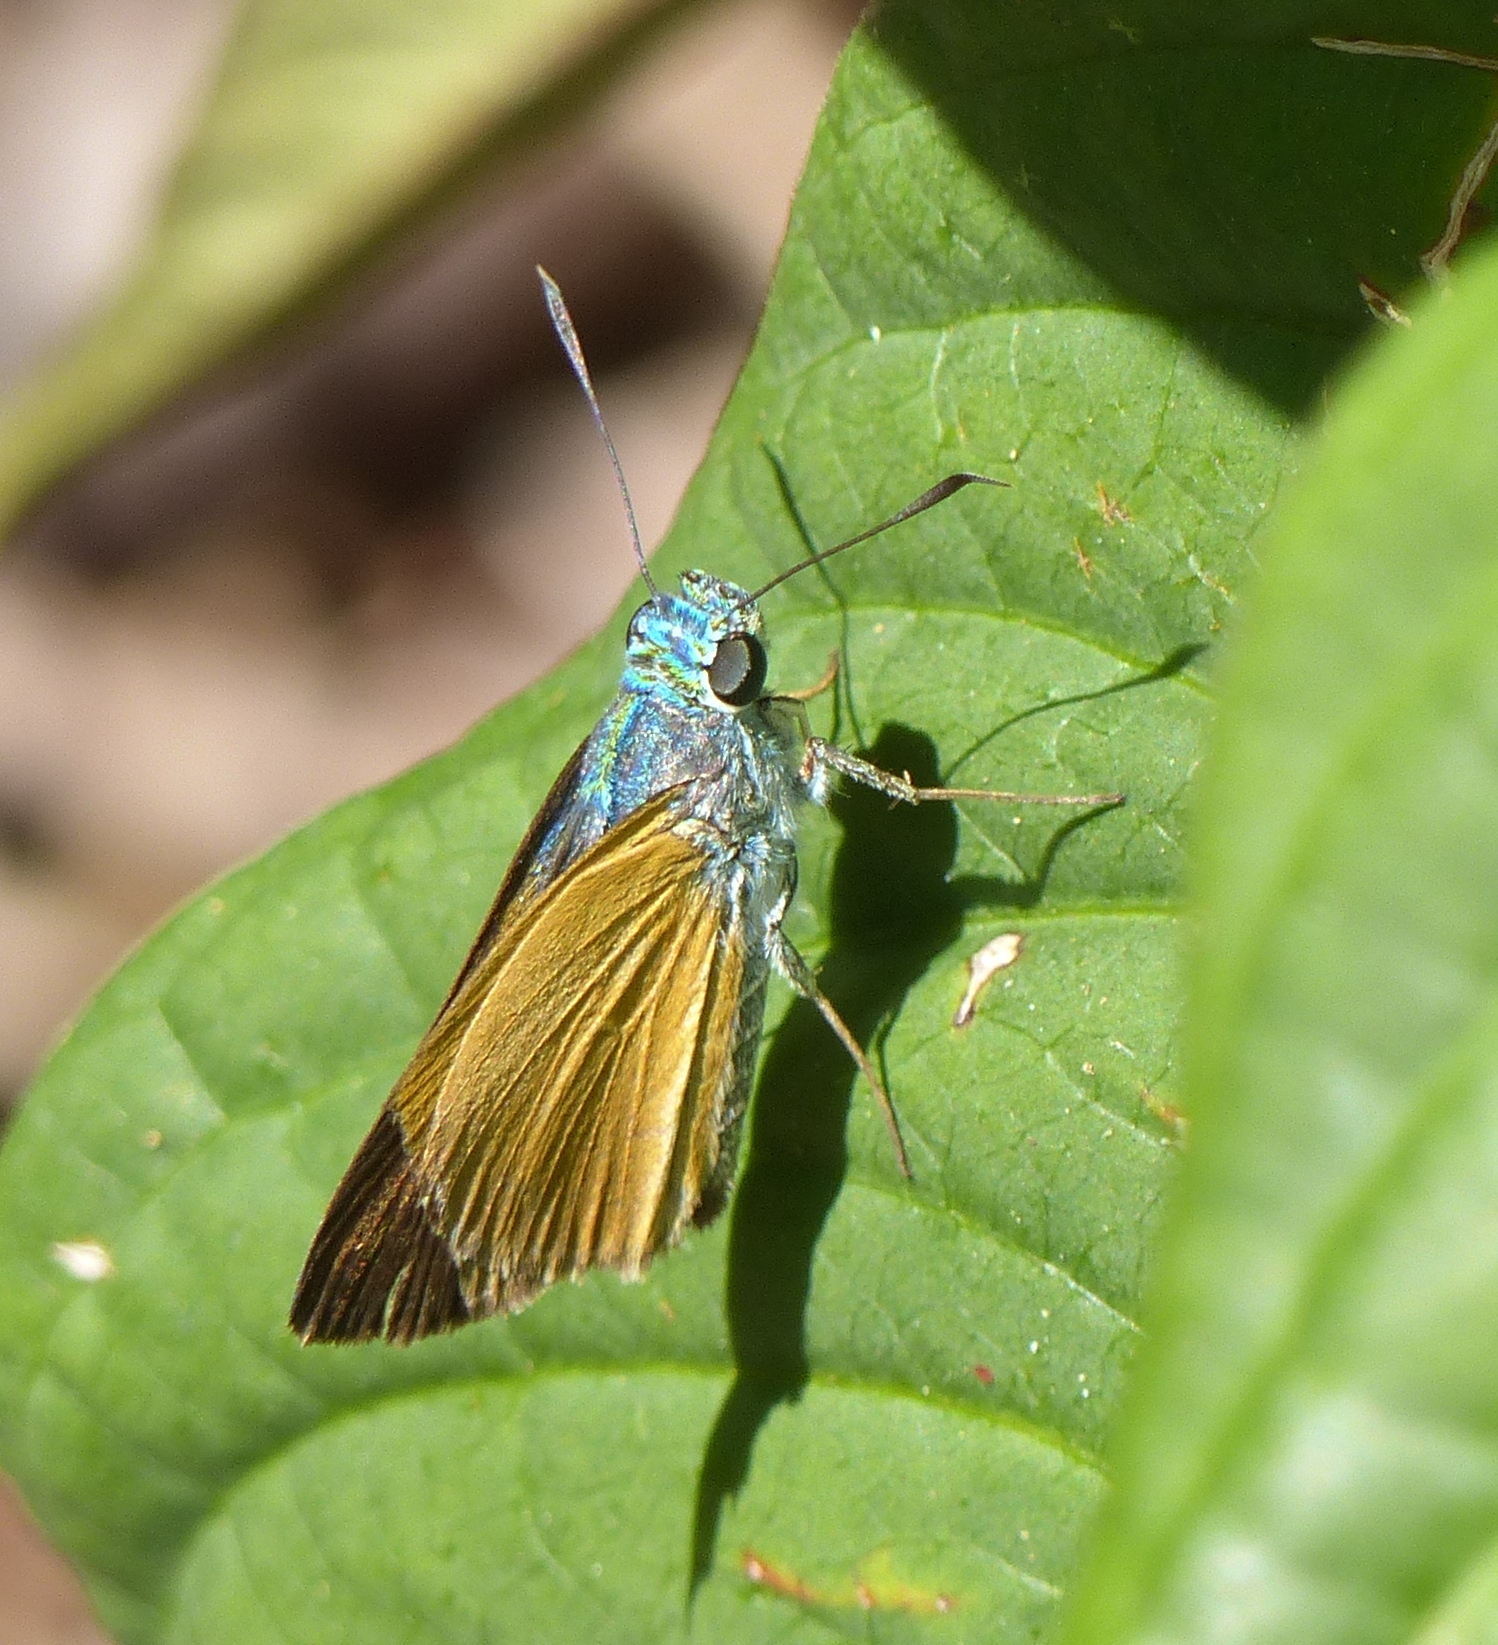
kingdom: Animalia
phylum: Arthropoda
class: Insecta
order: Lepidoptera
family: Hesperiidae
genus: Onophas
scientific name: Onophas columbaria
